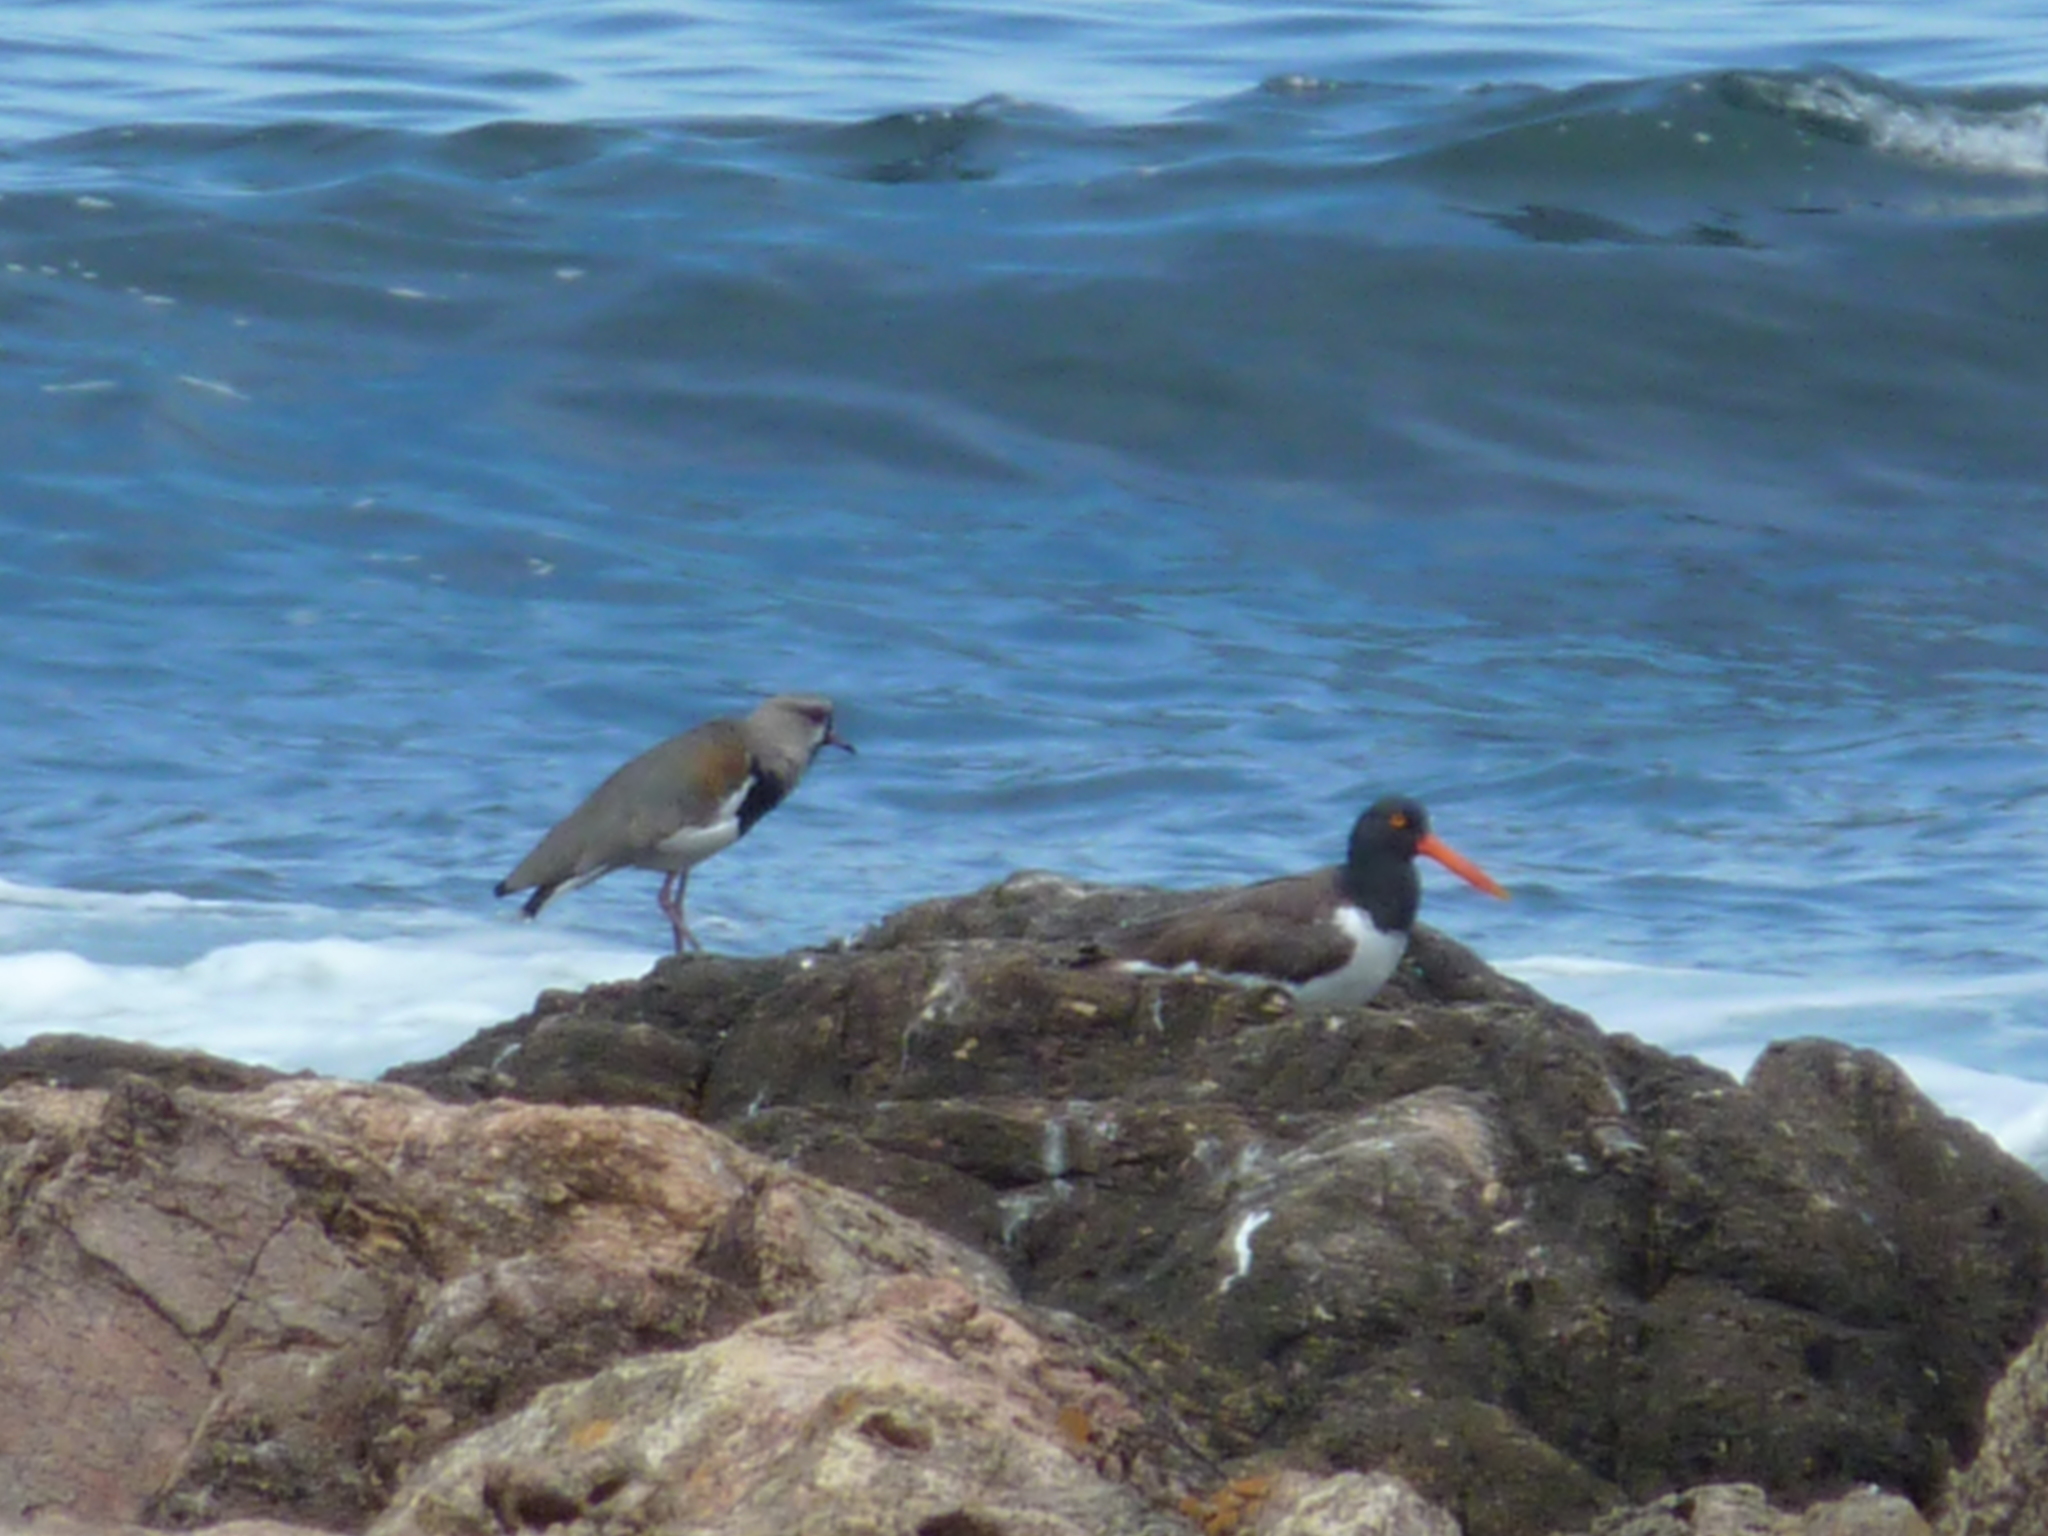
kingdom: Animalia
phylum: Chordata
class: Aves
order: Charadriiformes
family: Haematopodidae
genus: Haematopus
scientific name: Haematopus palliatus
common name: American oystercatcher
